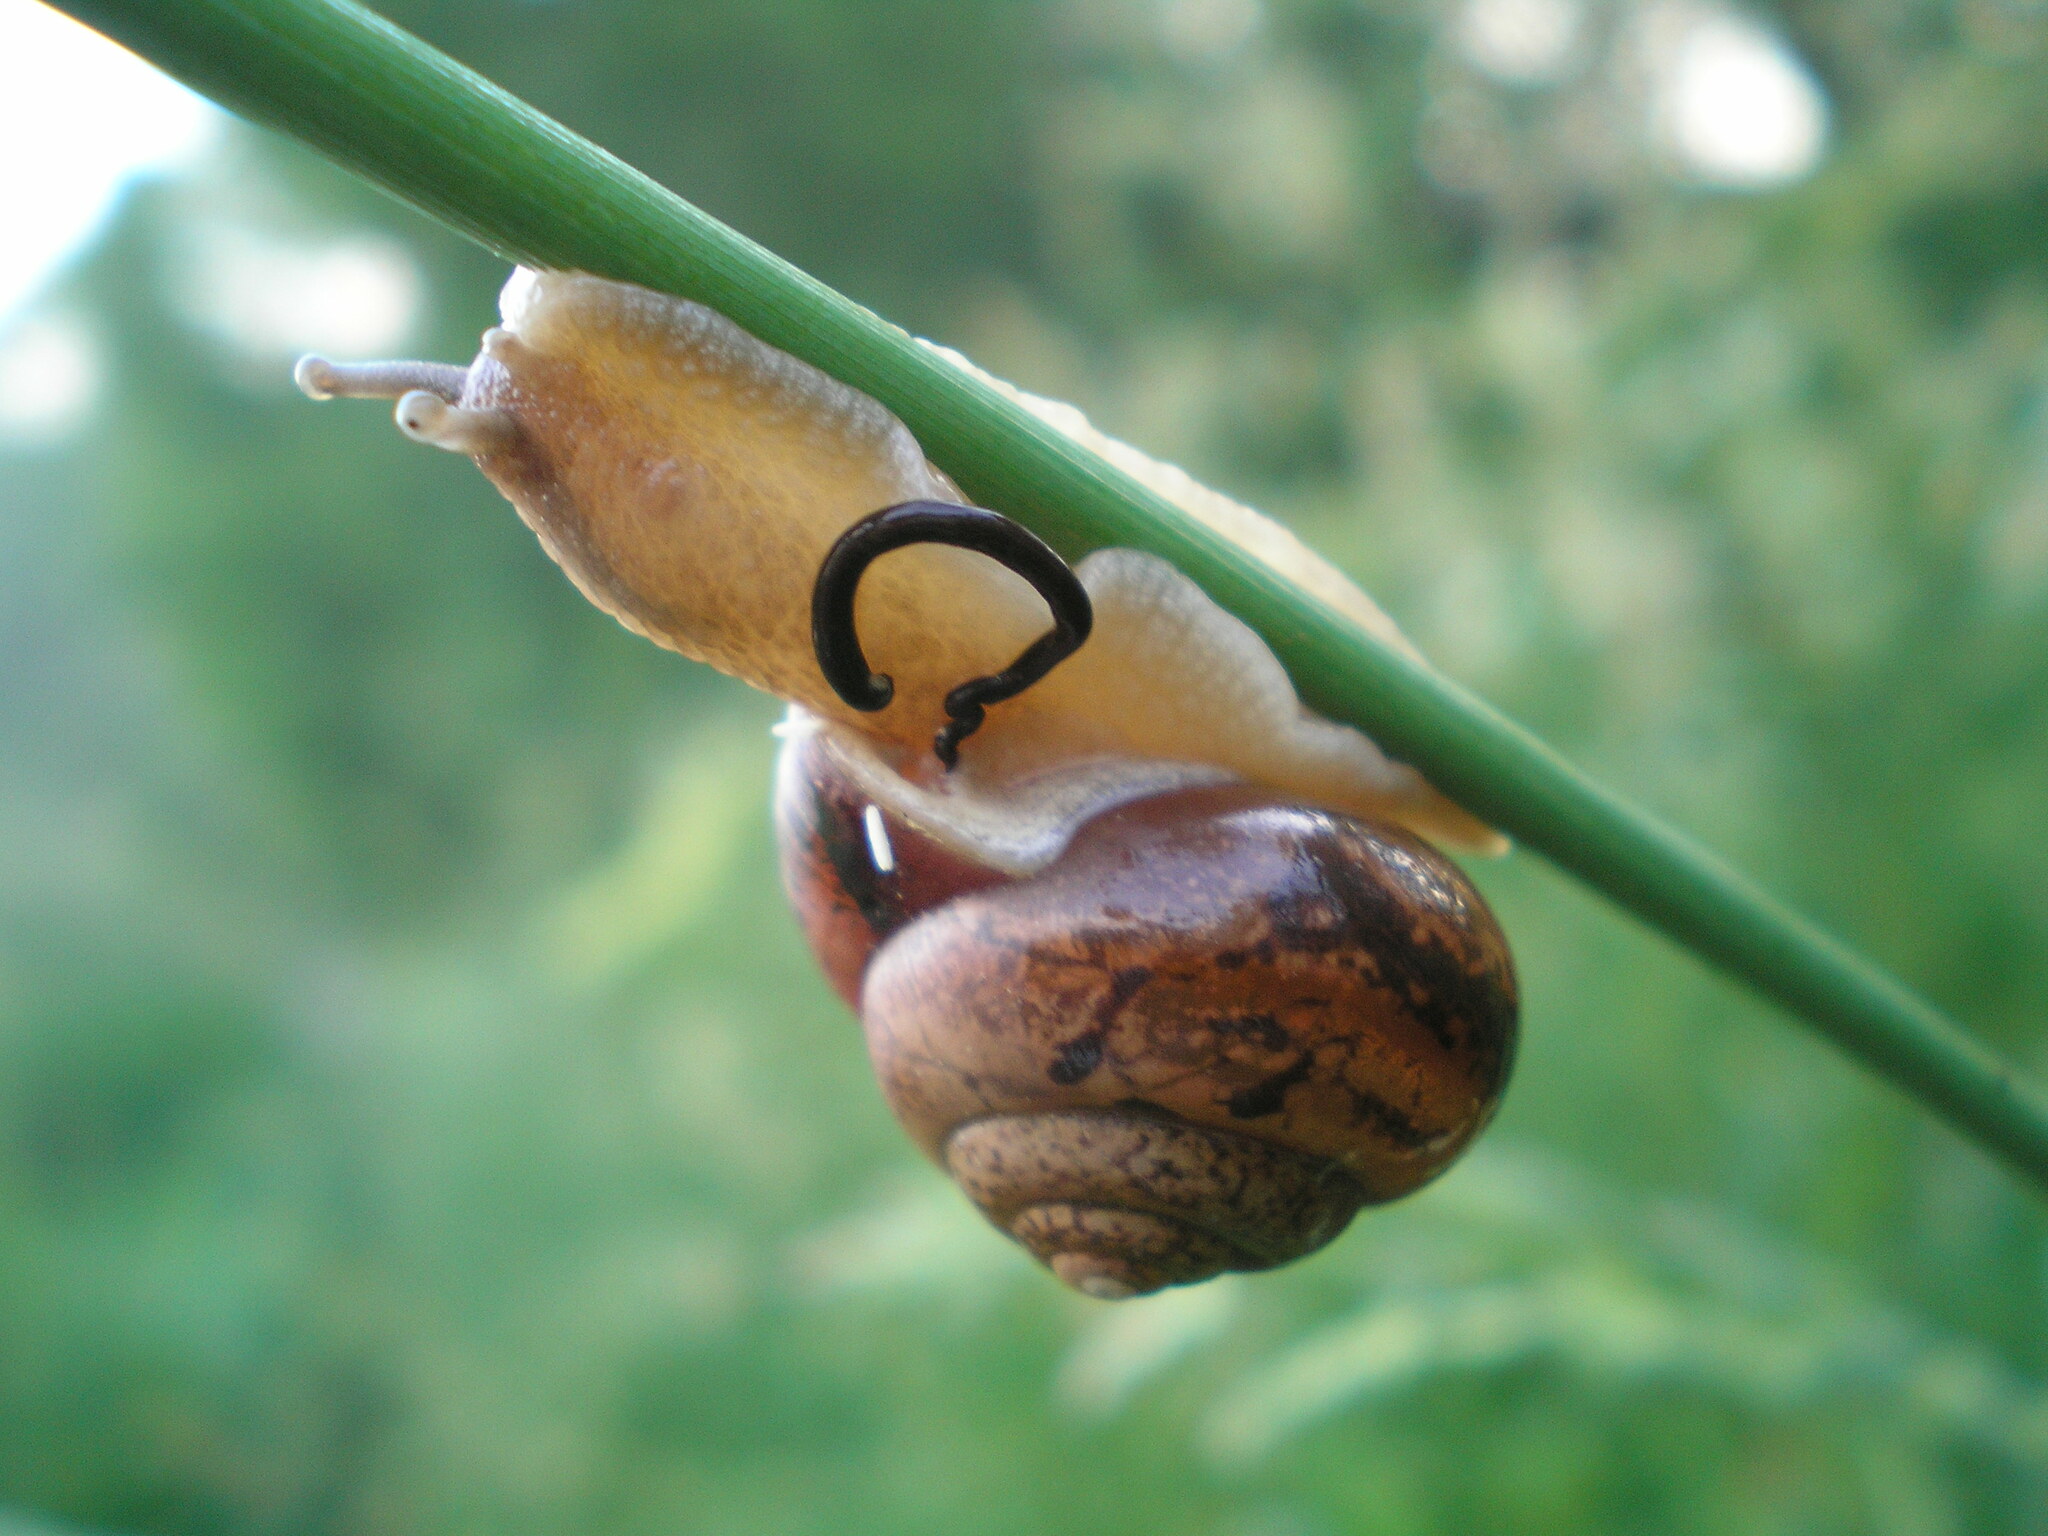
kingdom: Animalia
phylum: Mollusca
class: Gastropoda
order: Stylommatophora
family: Camaenidae
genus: Fruticicola
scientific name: Fruticicola fruticum
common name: Bush snail
